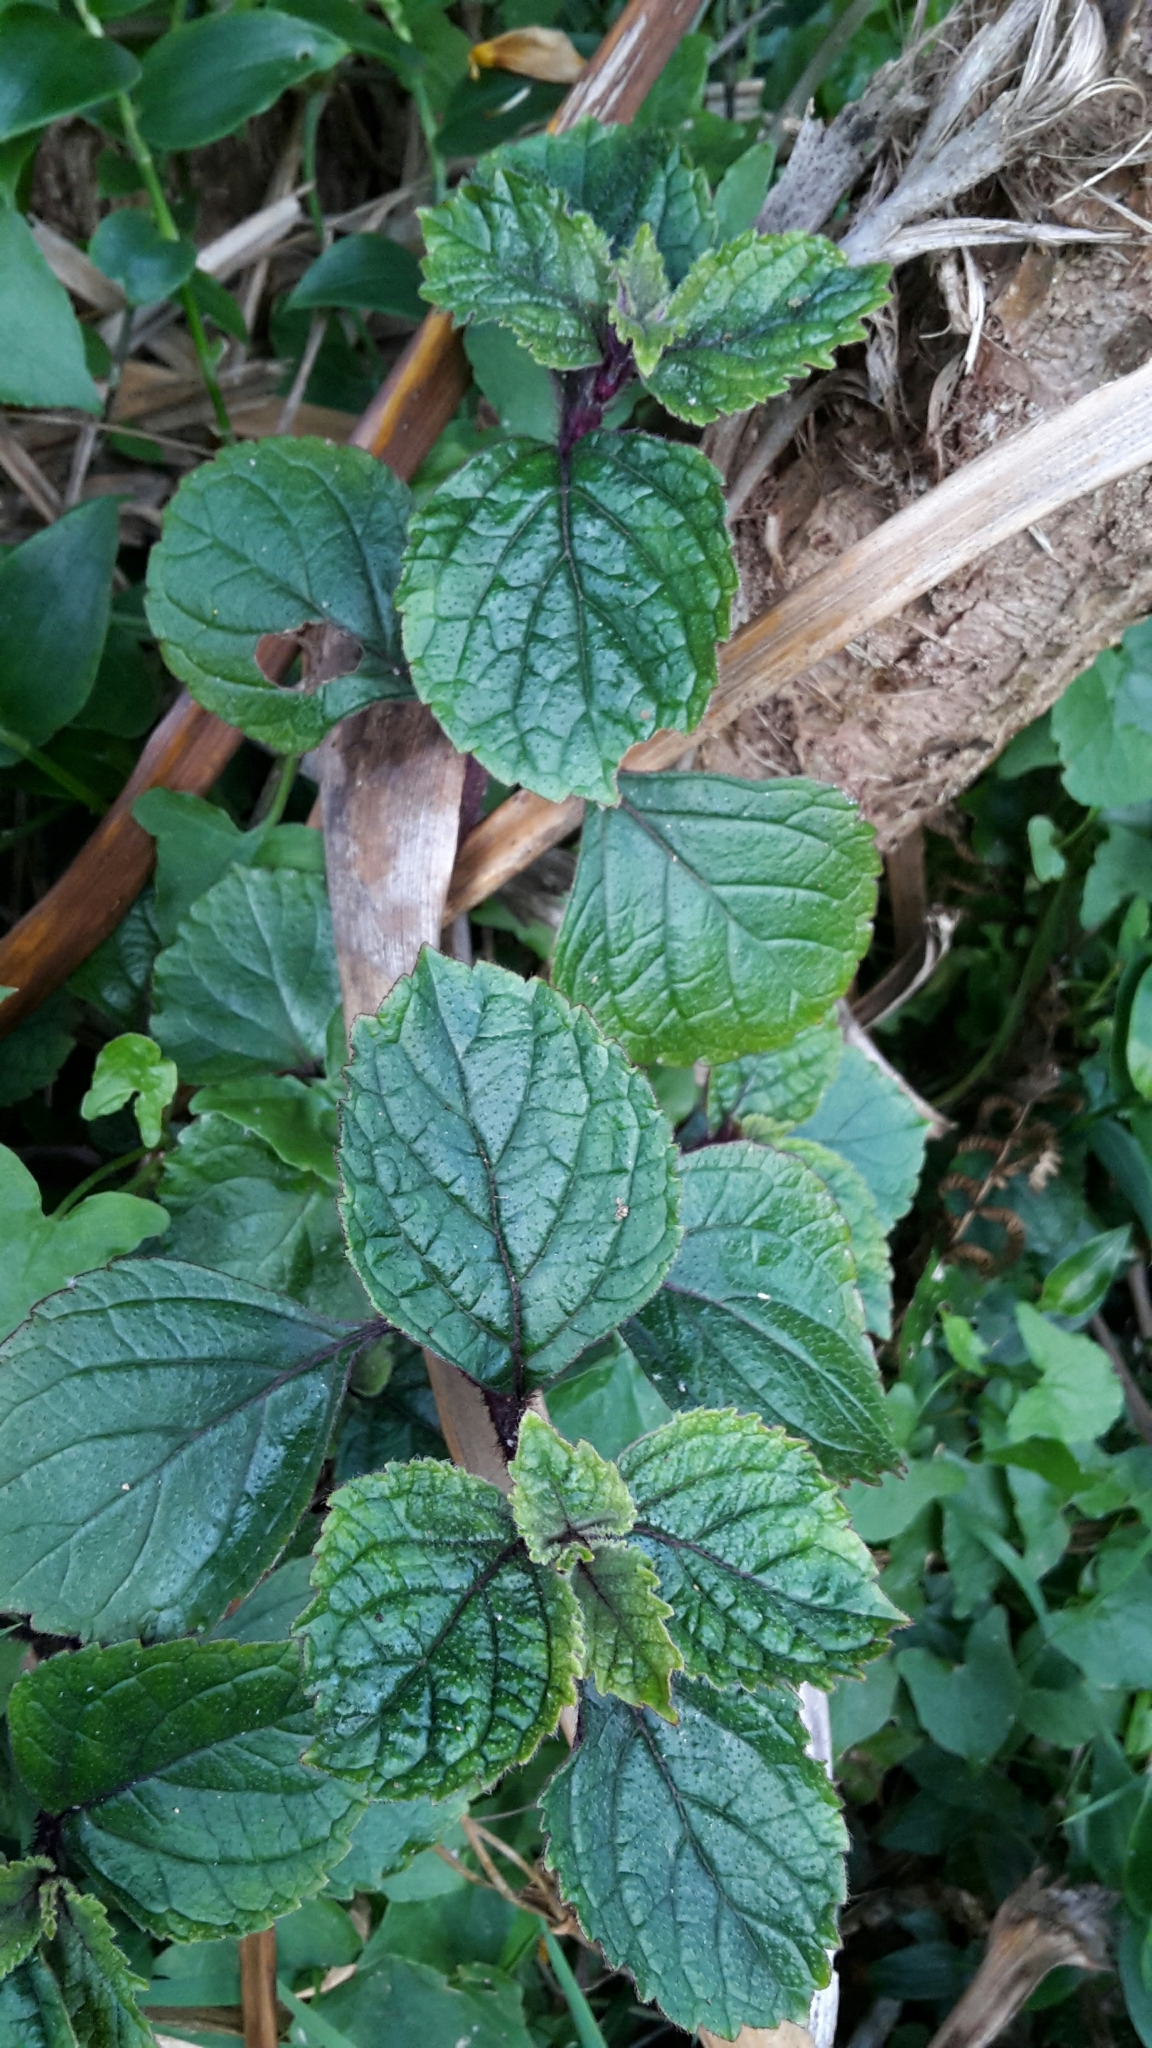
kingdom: Plantae
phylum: Tracheophyta
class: Magnoliopsida
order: Lamiales
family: Lamiaceae
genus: Plectranthus
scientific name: Plectranthus ciliatus
